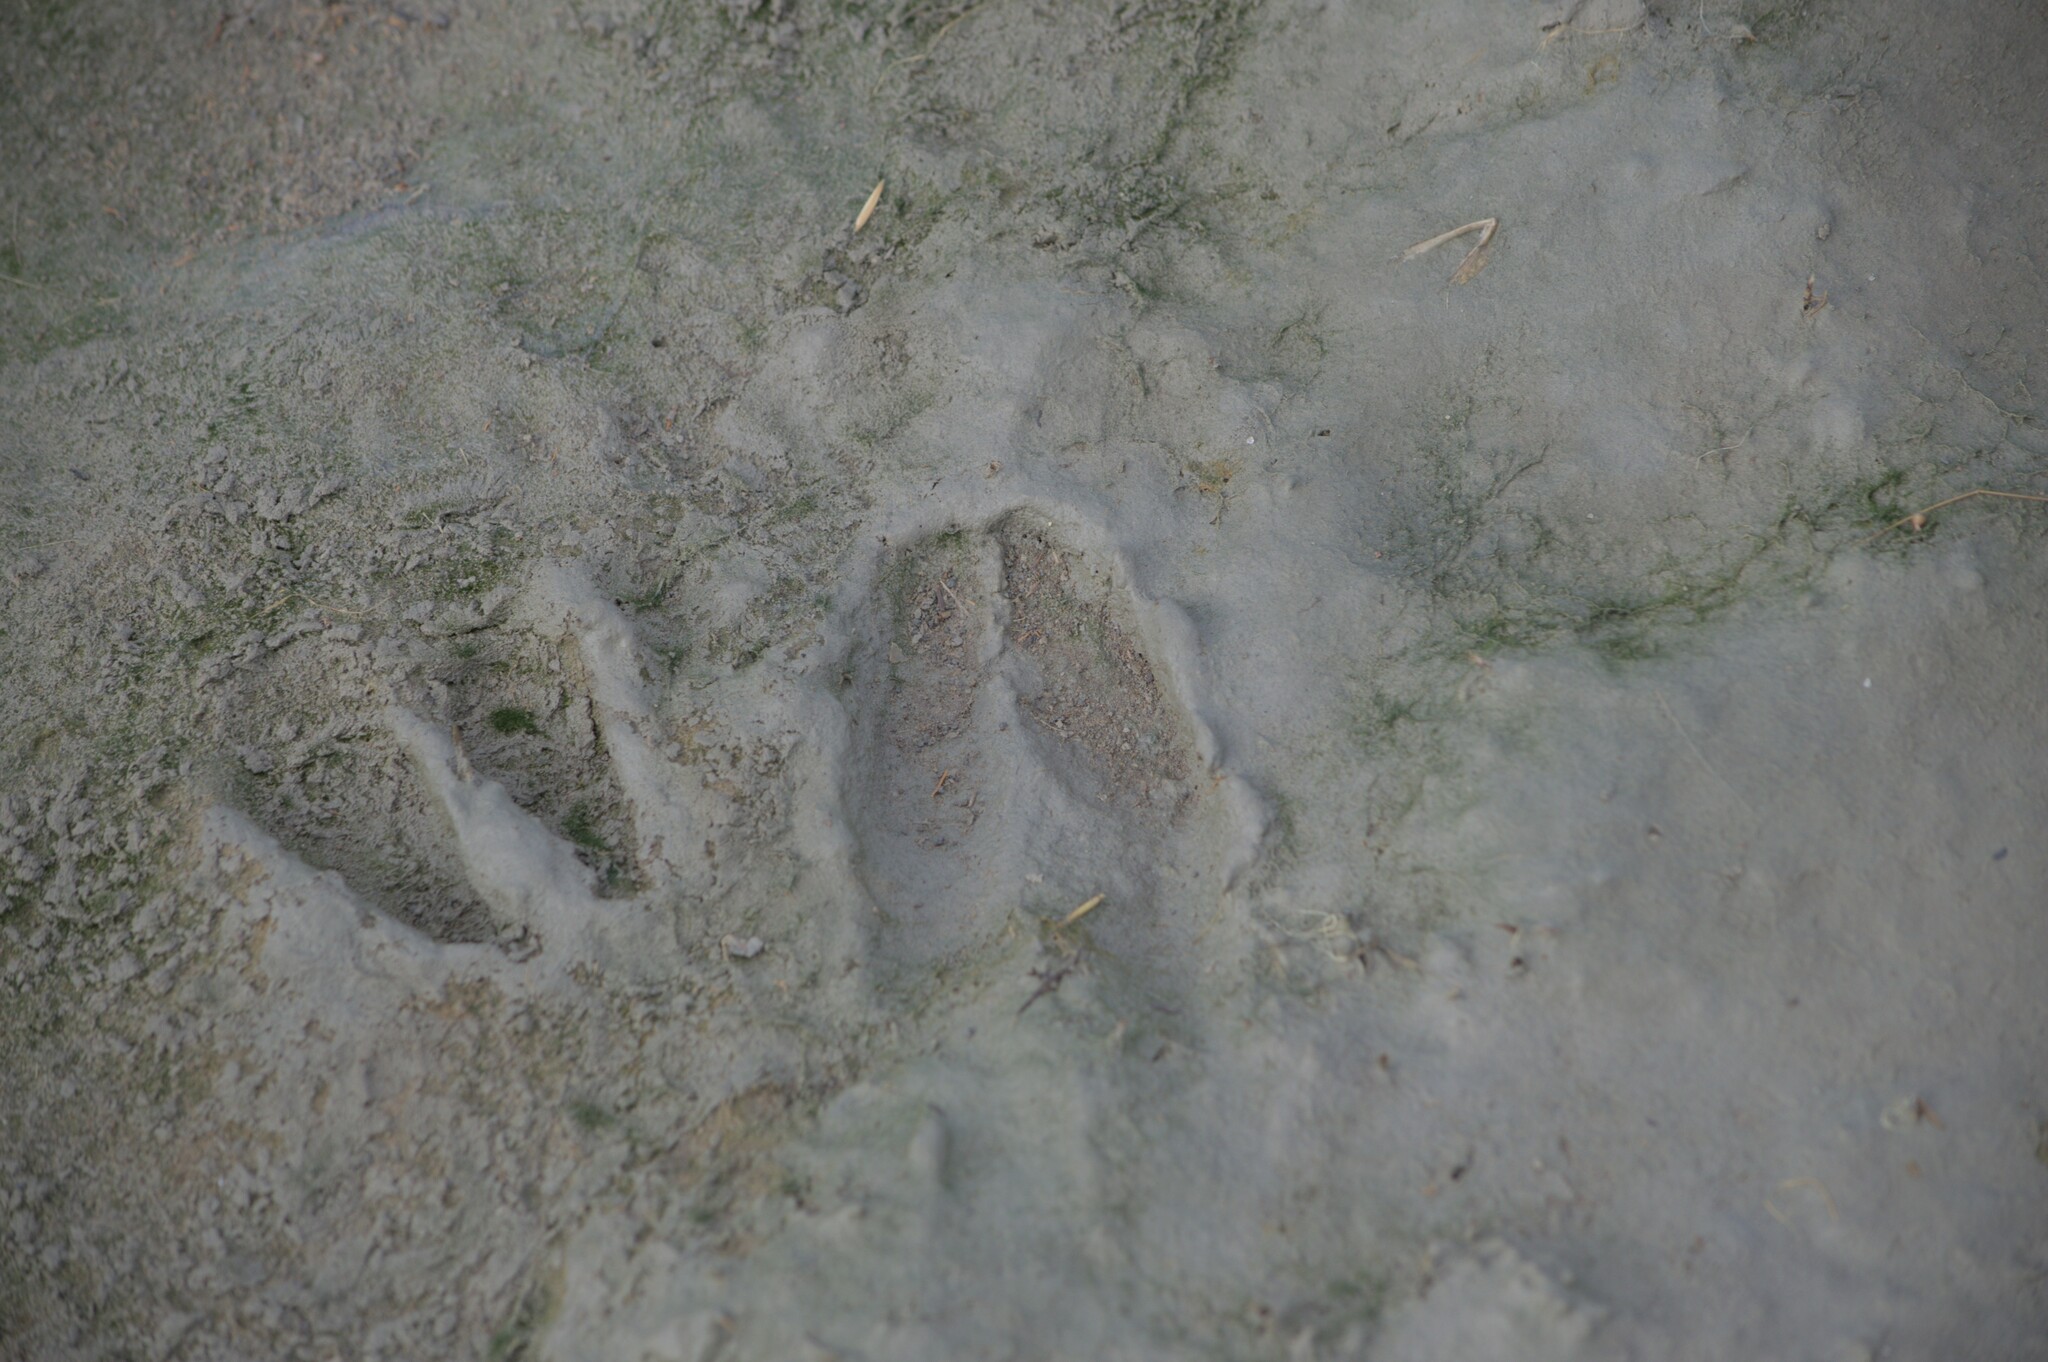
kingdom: Animalia
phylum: Chordata
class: Mammalia
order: Artiodactyla
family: Cervidae
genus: Odocoileus
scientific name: Odocoileus virginianus
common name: White-tailed deer
